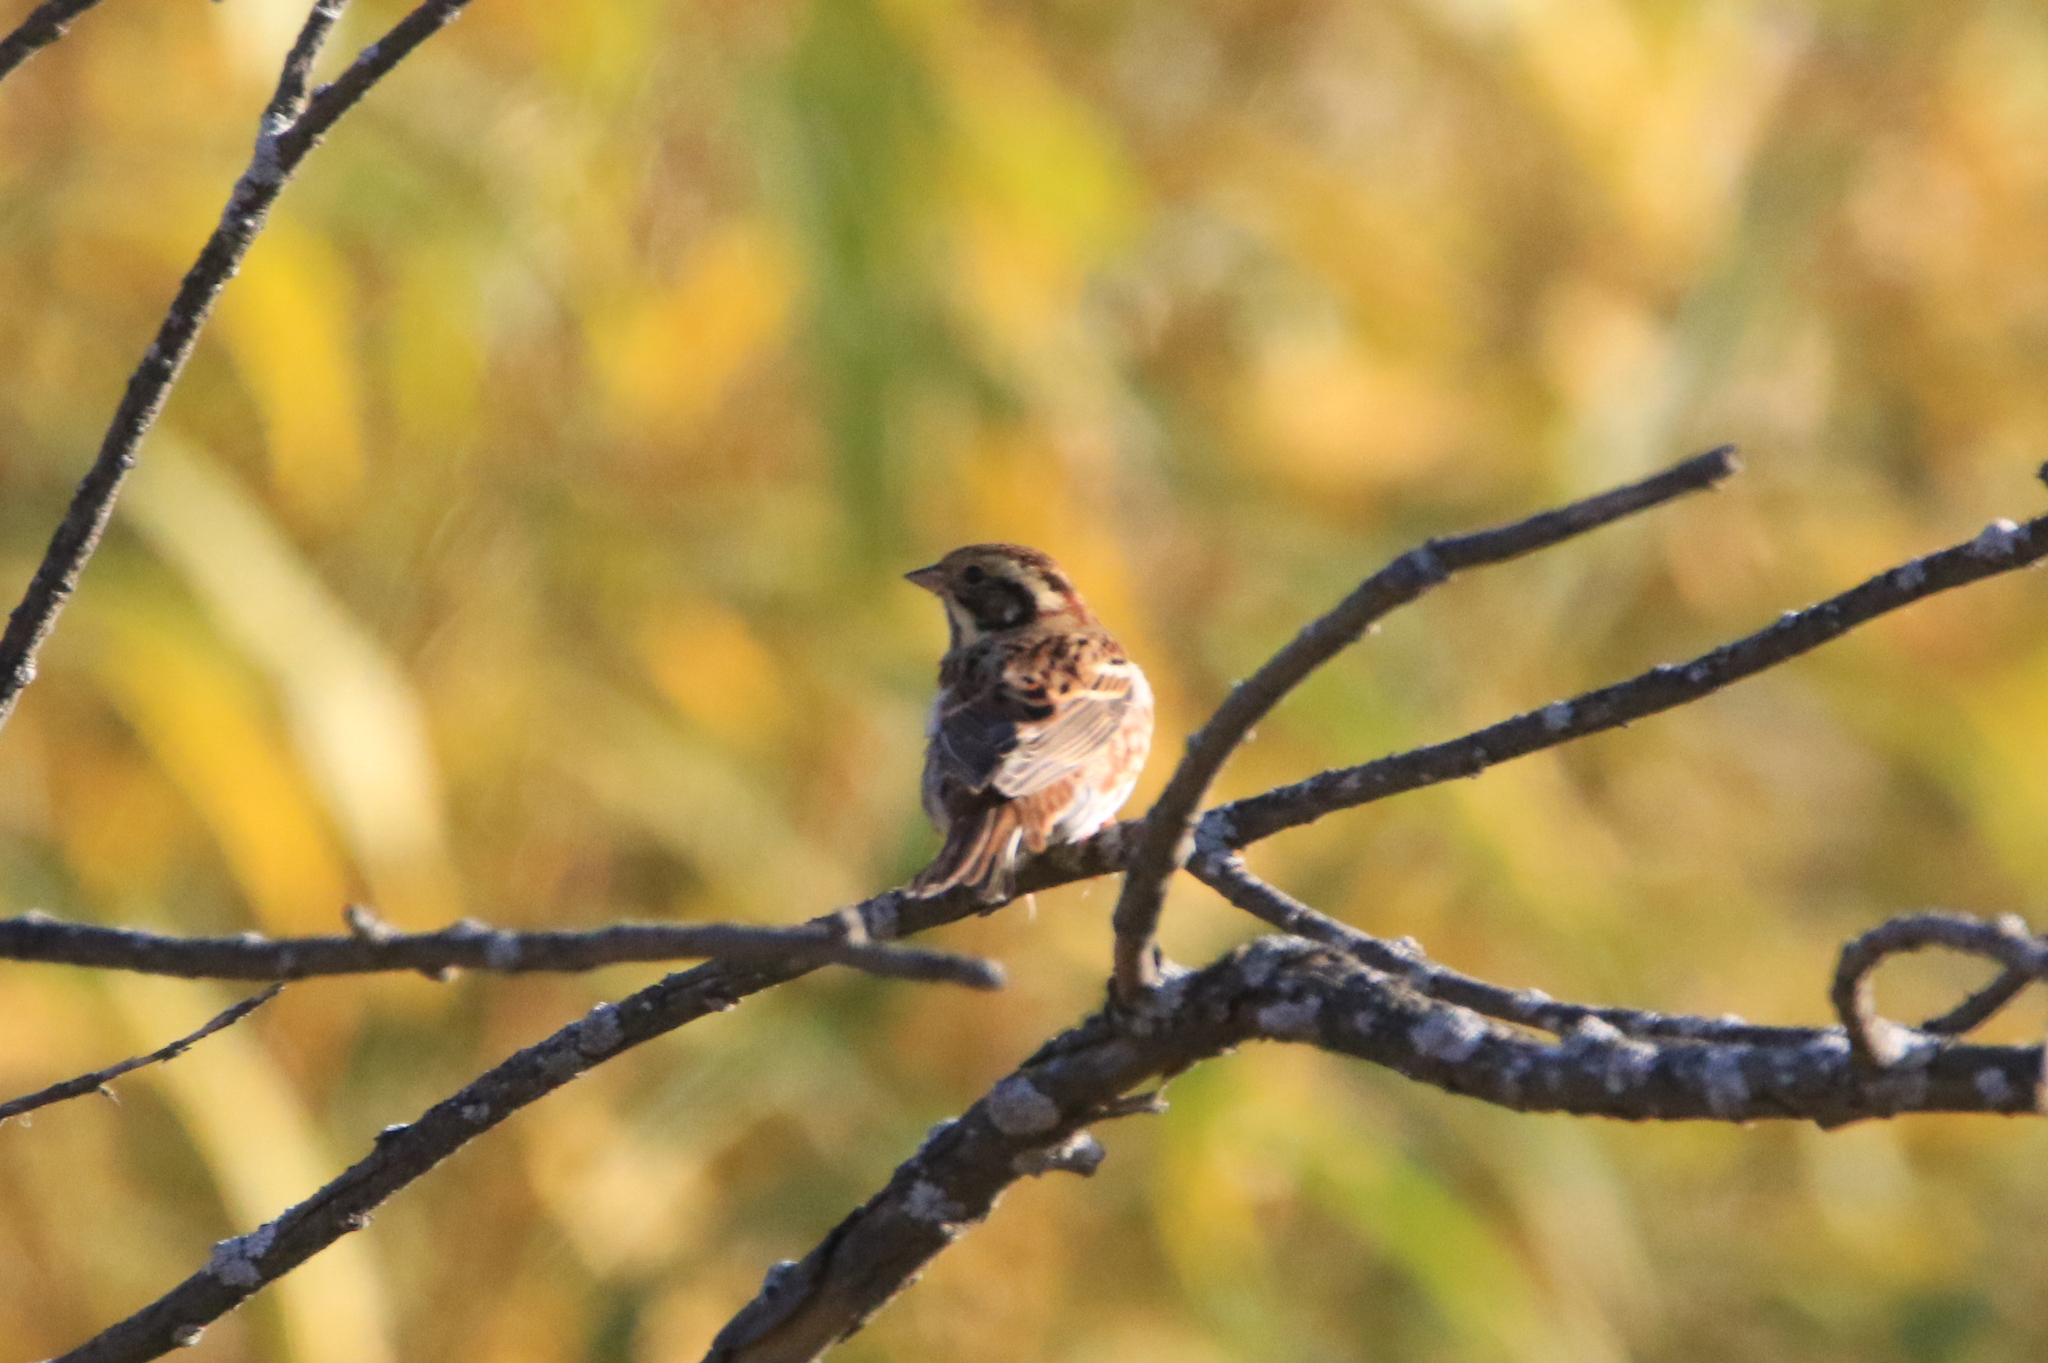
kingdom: Animalia
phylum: Chordata
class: Aves
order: Passeriformes
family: Emberizidae
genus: Emberiza
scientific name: Emberiza rustica
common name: Rustic bunting
